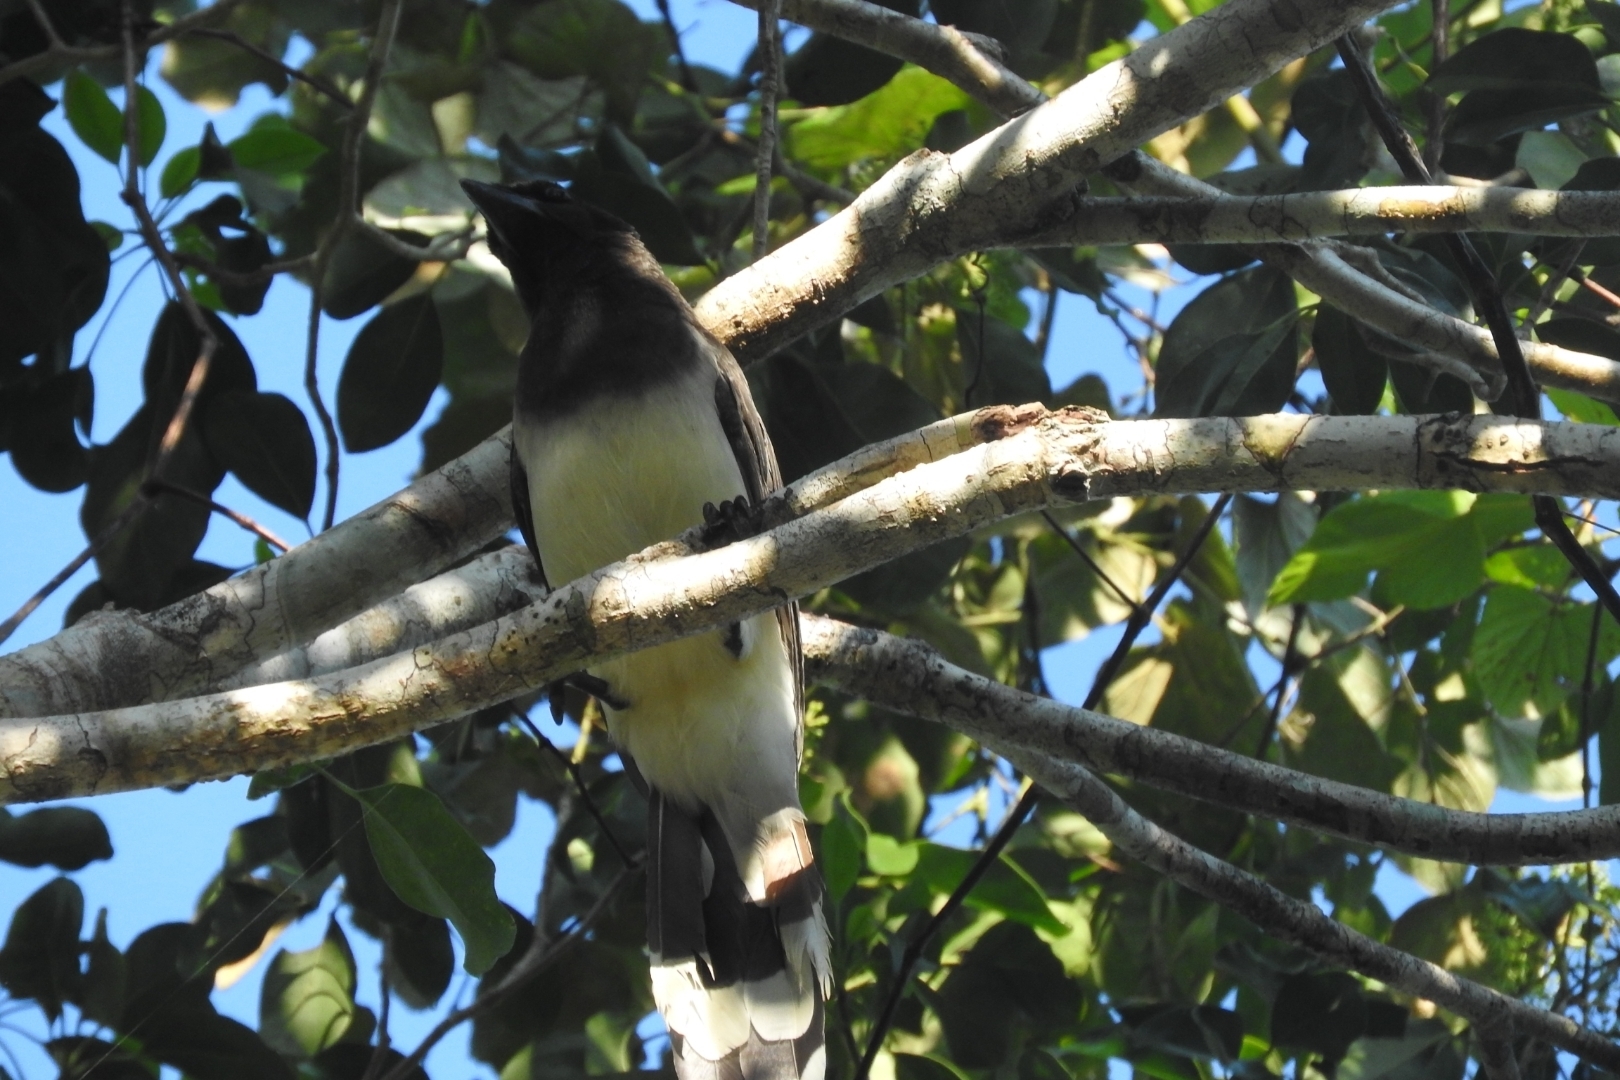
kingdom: Animalia
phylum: Chordata
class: Aves
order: Passeriformes
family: Corvidae
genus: Psilorhinus
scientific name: Psilorhinus morio
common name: Brown jay
